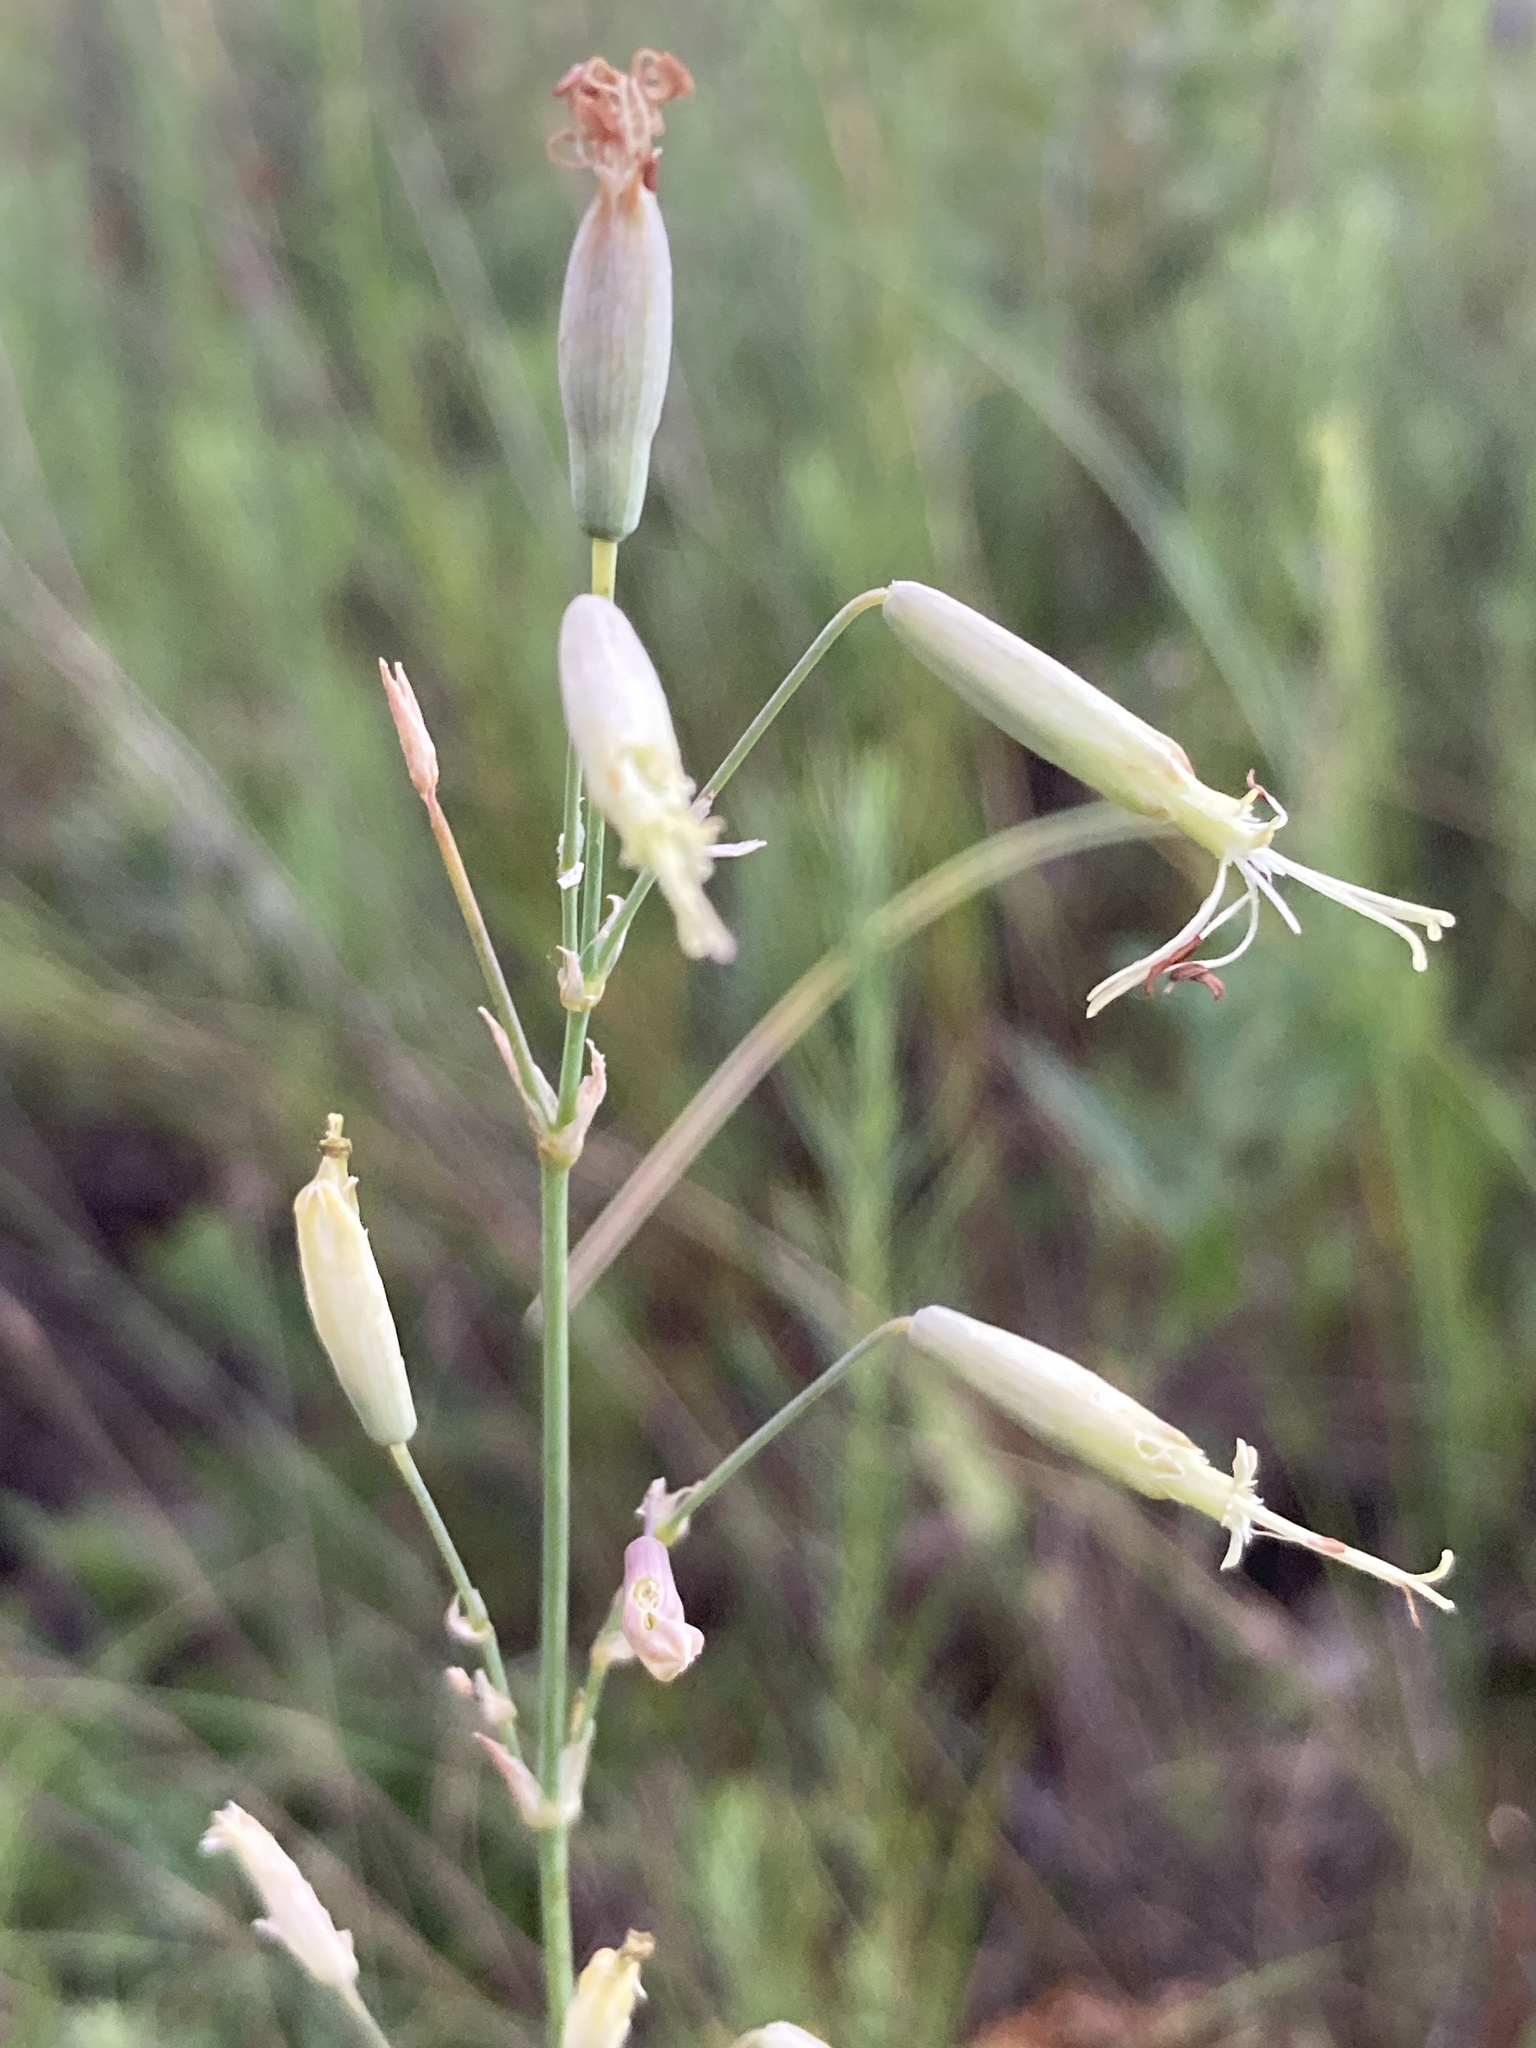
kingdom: Plantae
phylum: Tracheophyta
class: Magnoliopsida
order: Caryophyllales
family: Caryophyllaceae
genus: Silene
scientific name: Silene chlorantha
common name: Yellowgreen catchfly
